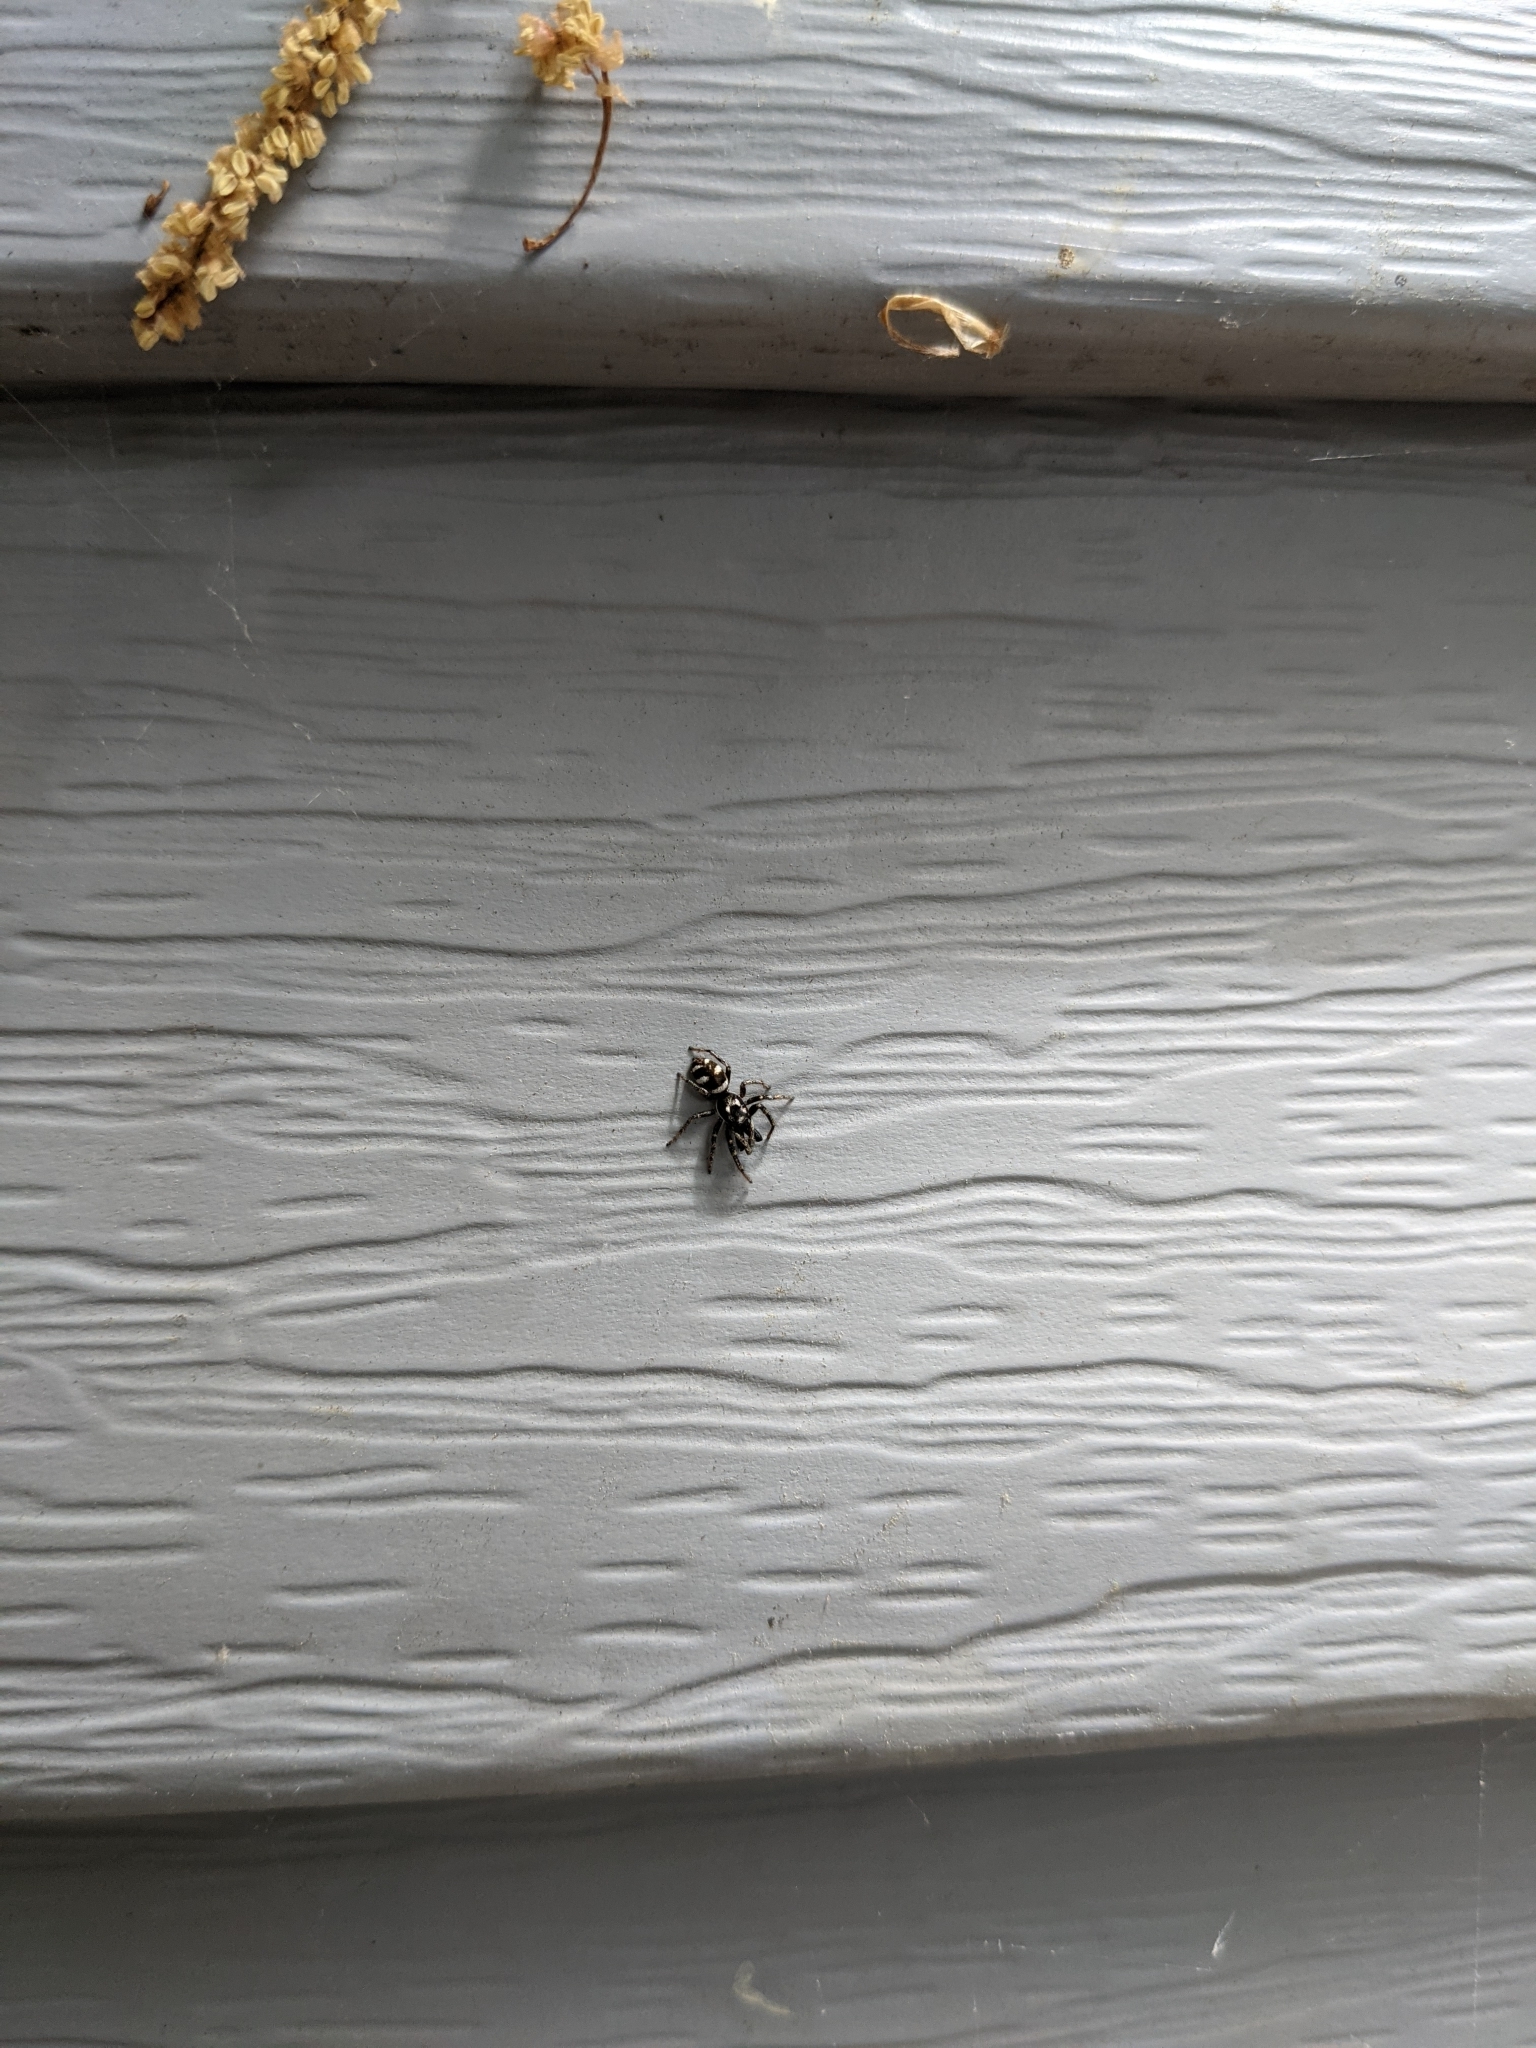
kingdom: Animalia
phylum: Arthropoda
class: Arachnida
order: Araneae
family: Salticidae
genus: Salticus
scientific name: Salticus scenicus
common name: Zebra jumper
